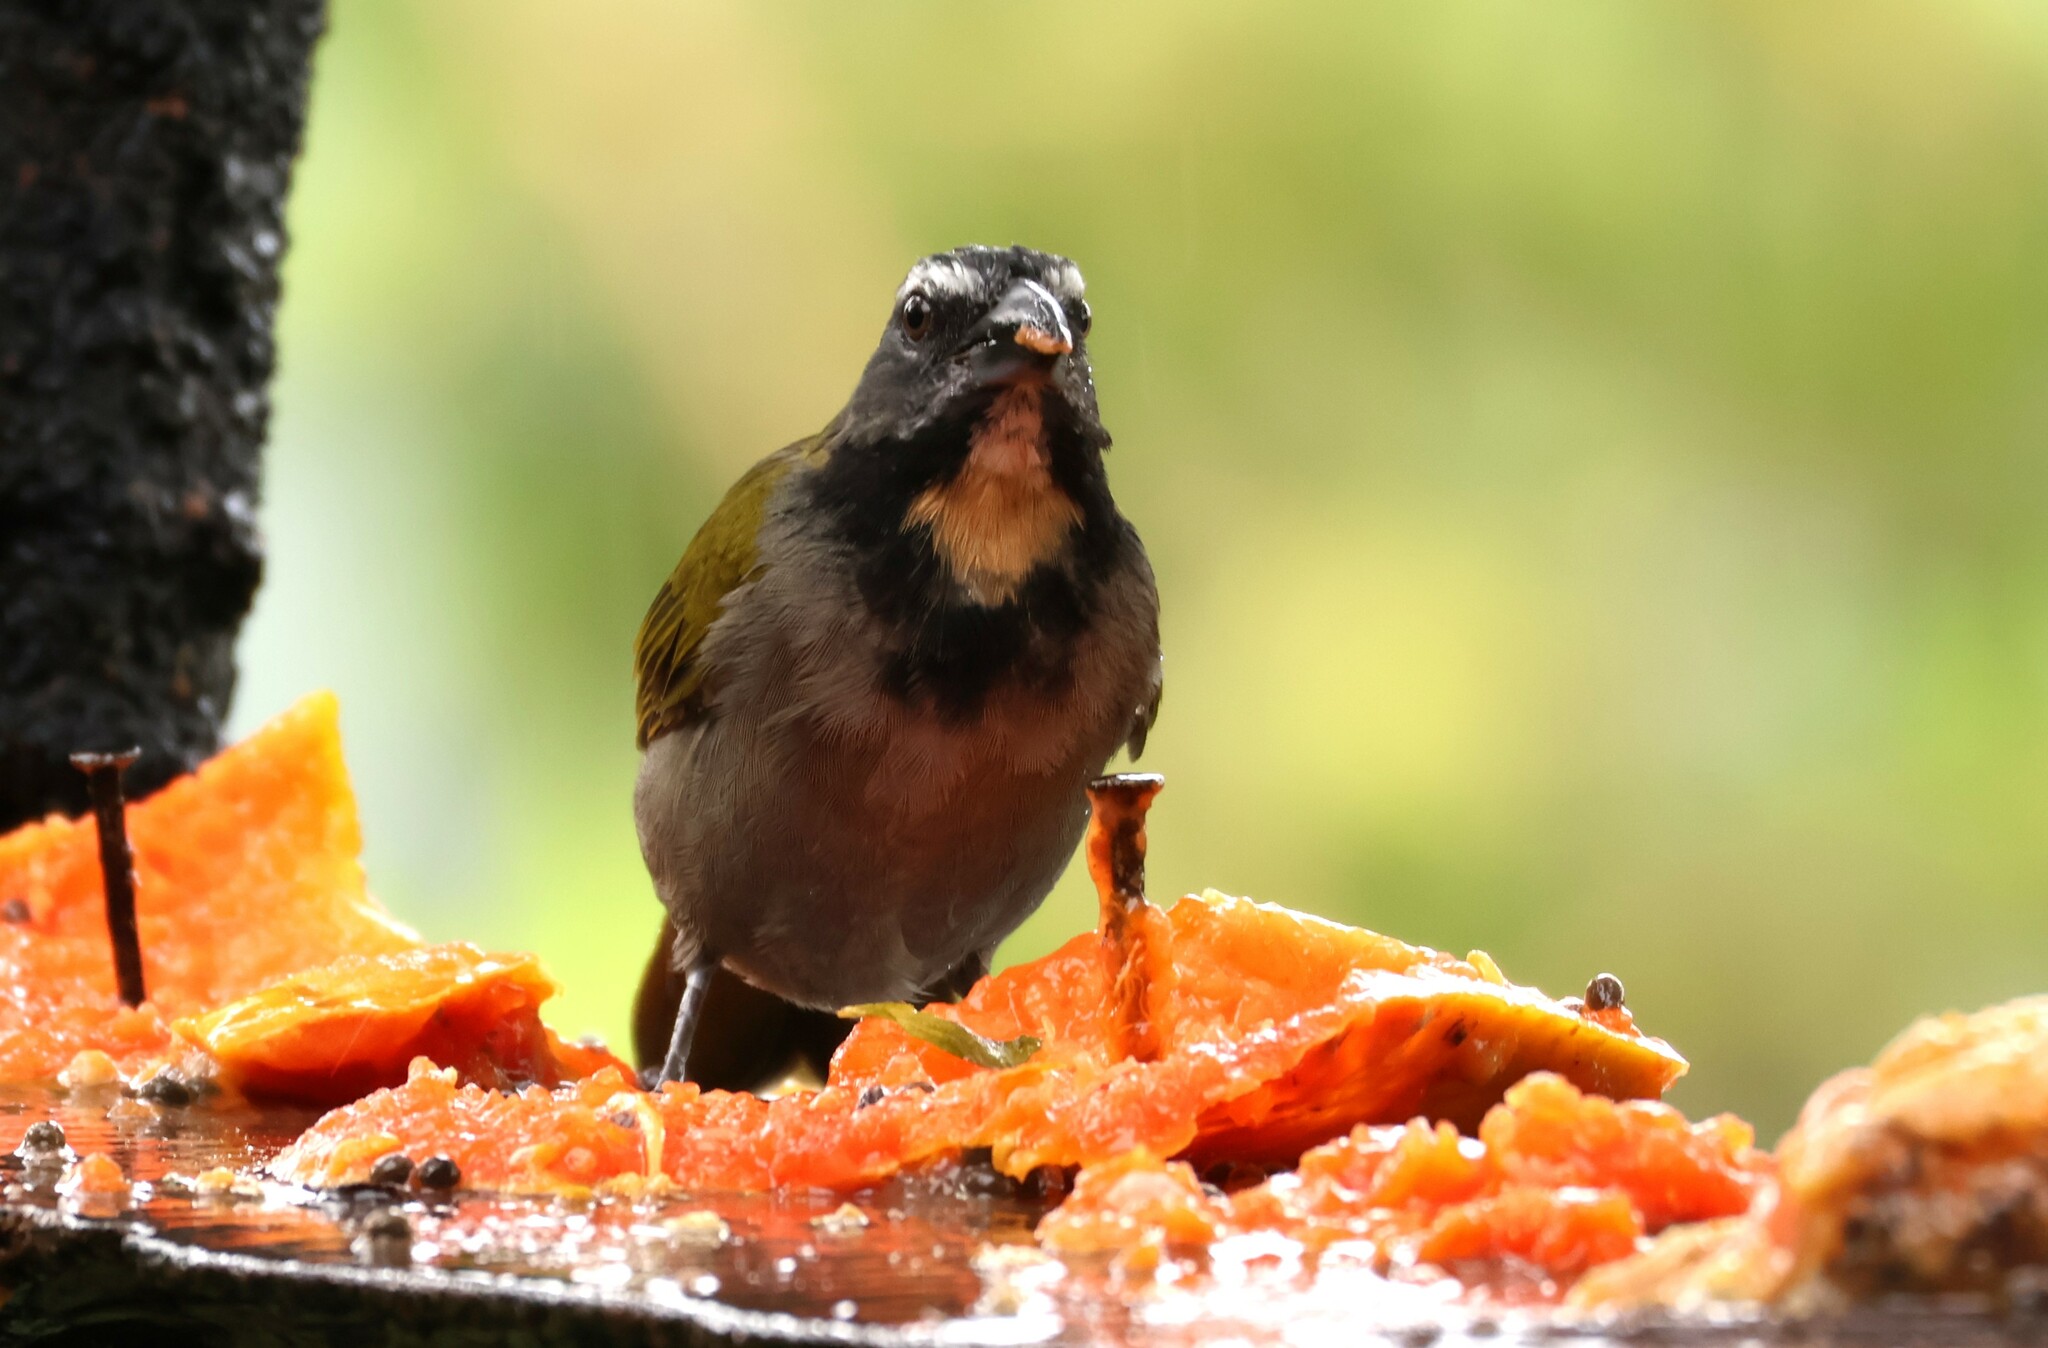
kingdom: Animalia
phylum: Chordata
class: Aves
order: Passeriformes
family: Thraupidae
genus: Saltator
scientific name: Saltator maximus
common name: Buff-throated saltator
